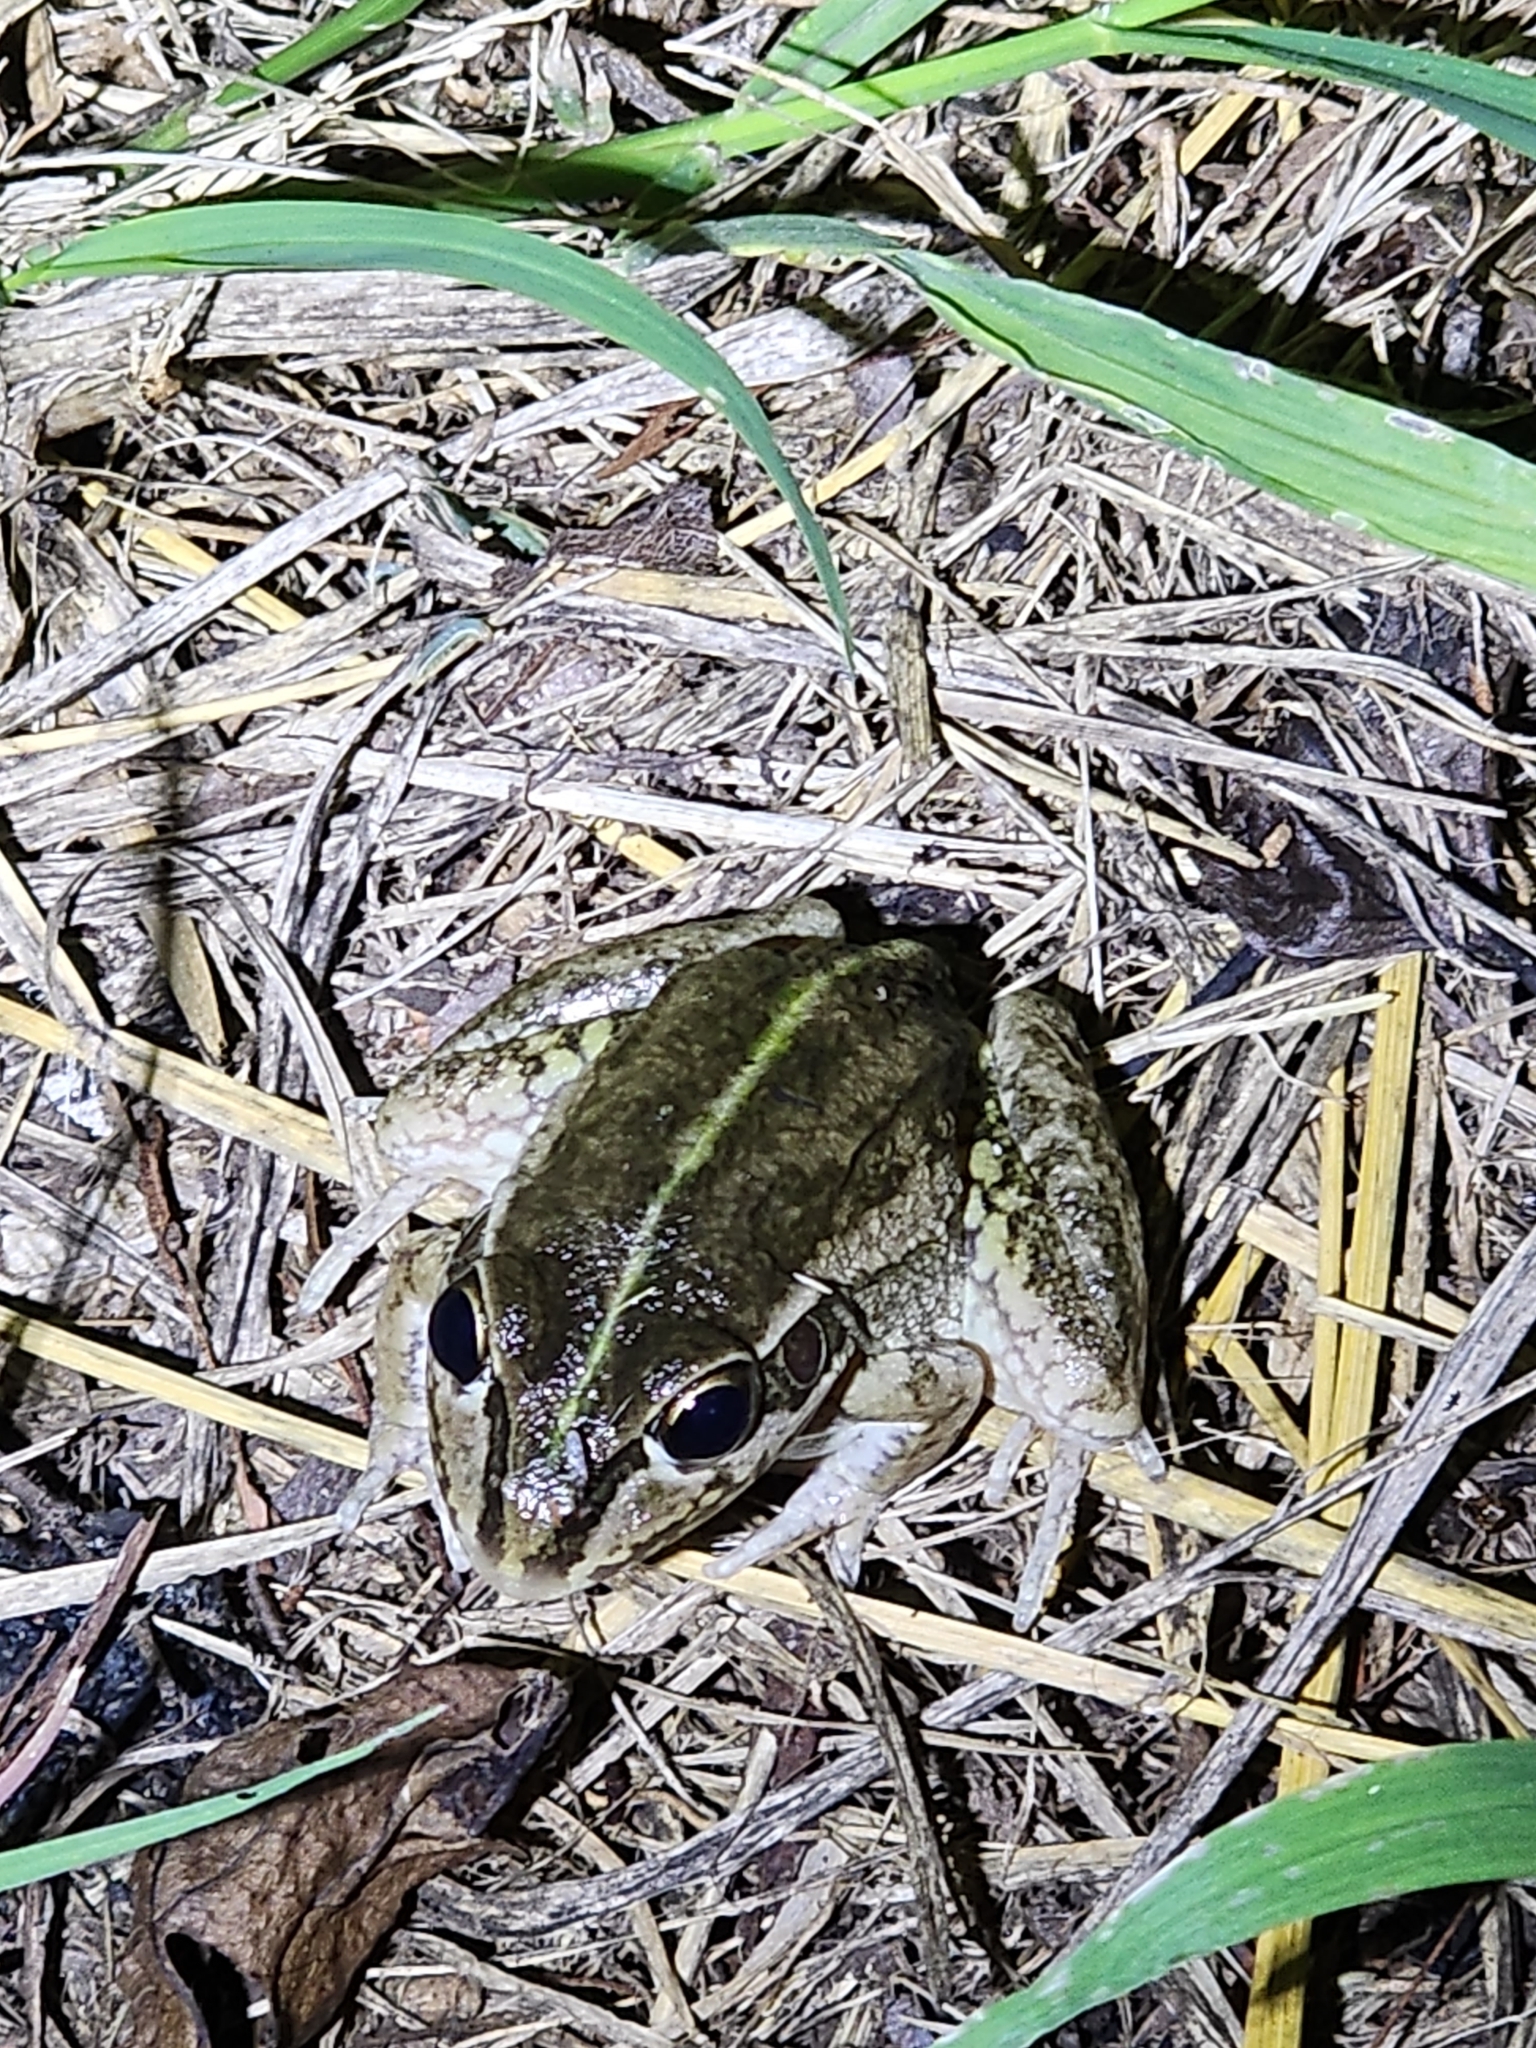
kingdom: Animalia
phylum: Chordata
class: Amphibia
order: Anura
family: Pelodryadidae
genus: Ranoidea
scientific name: Ranoidea alboguttata
